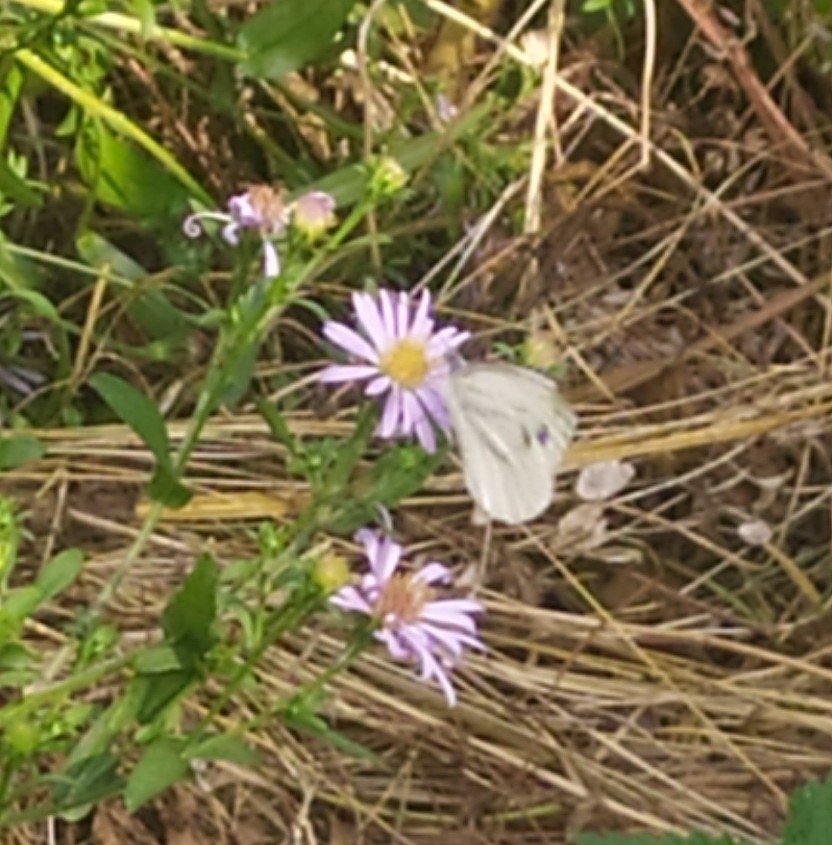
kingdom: Animalia
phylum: Arthropoda
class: Insecta
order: Lepidoptera
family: Pieridae
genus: Pieris
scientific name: Pieris napi
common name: Green-veined white
